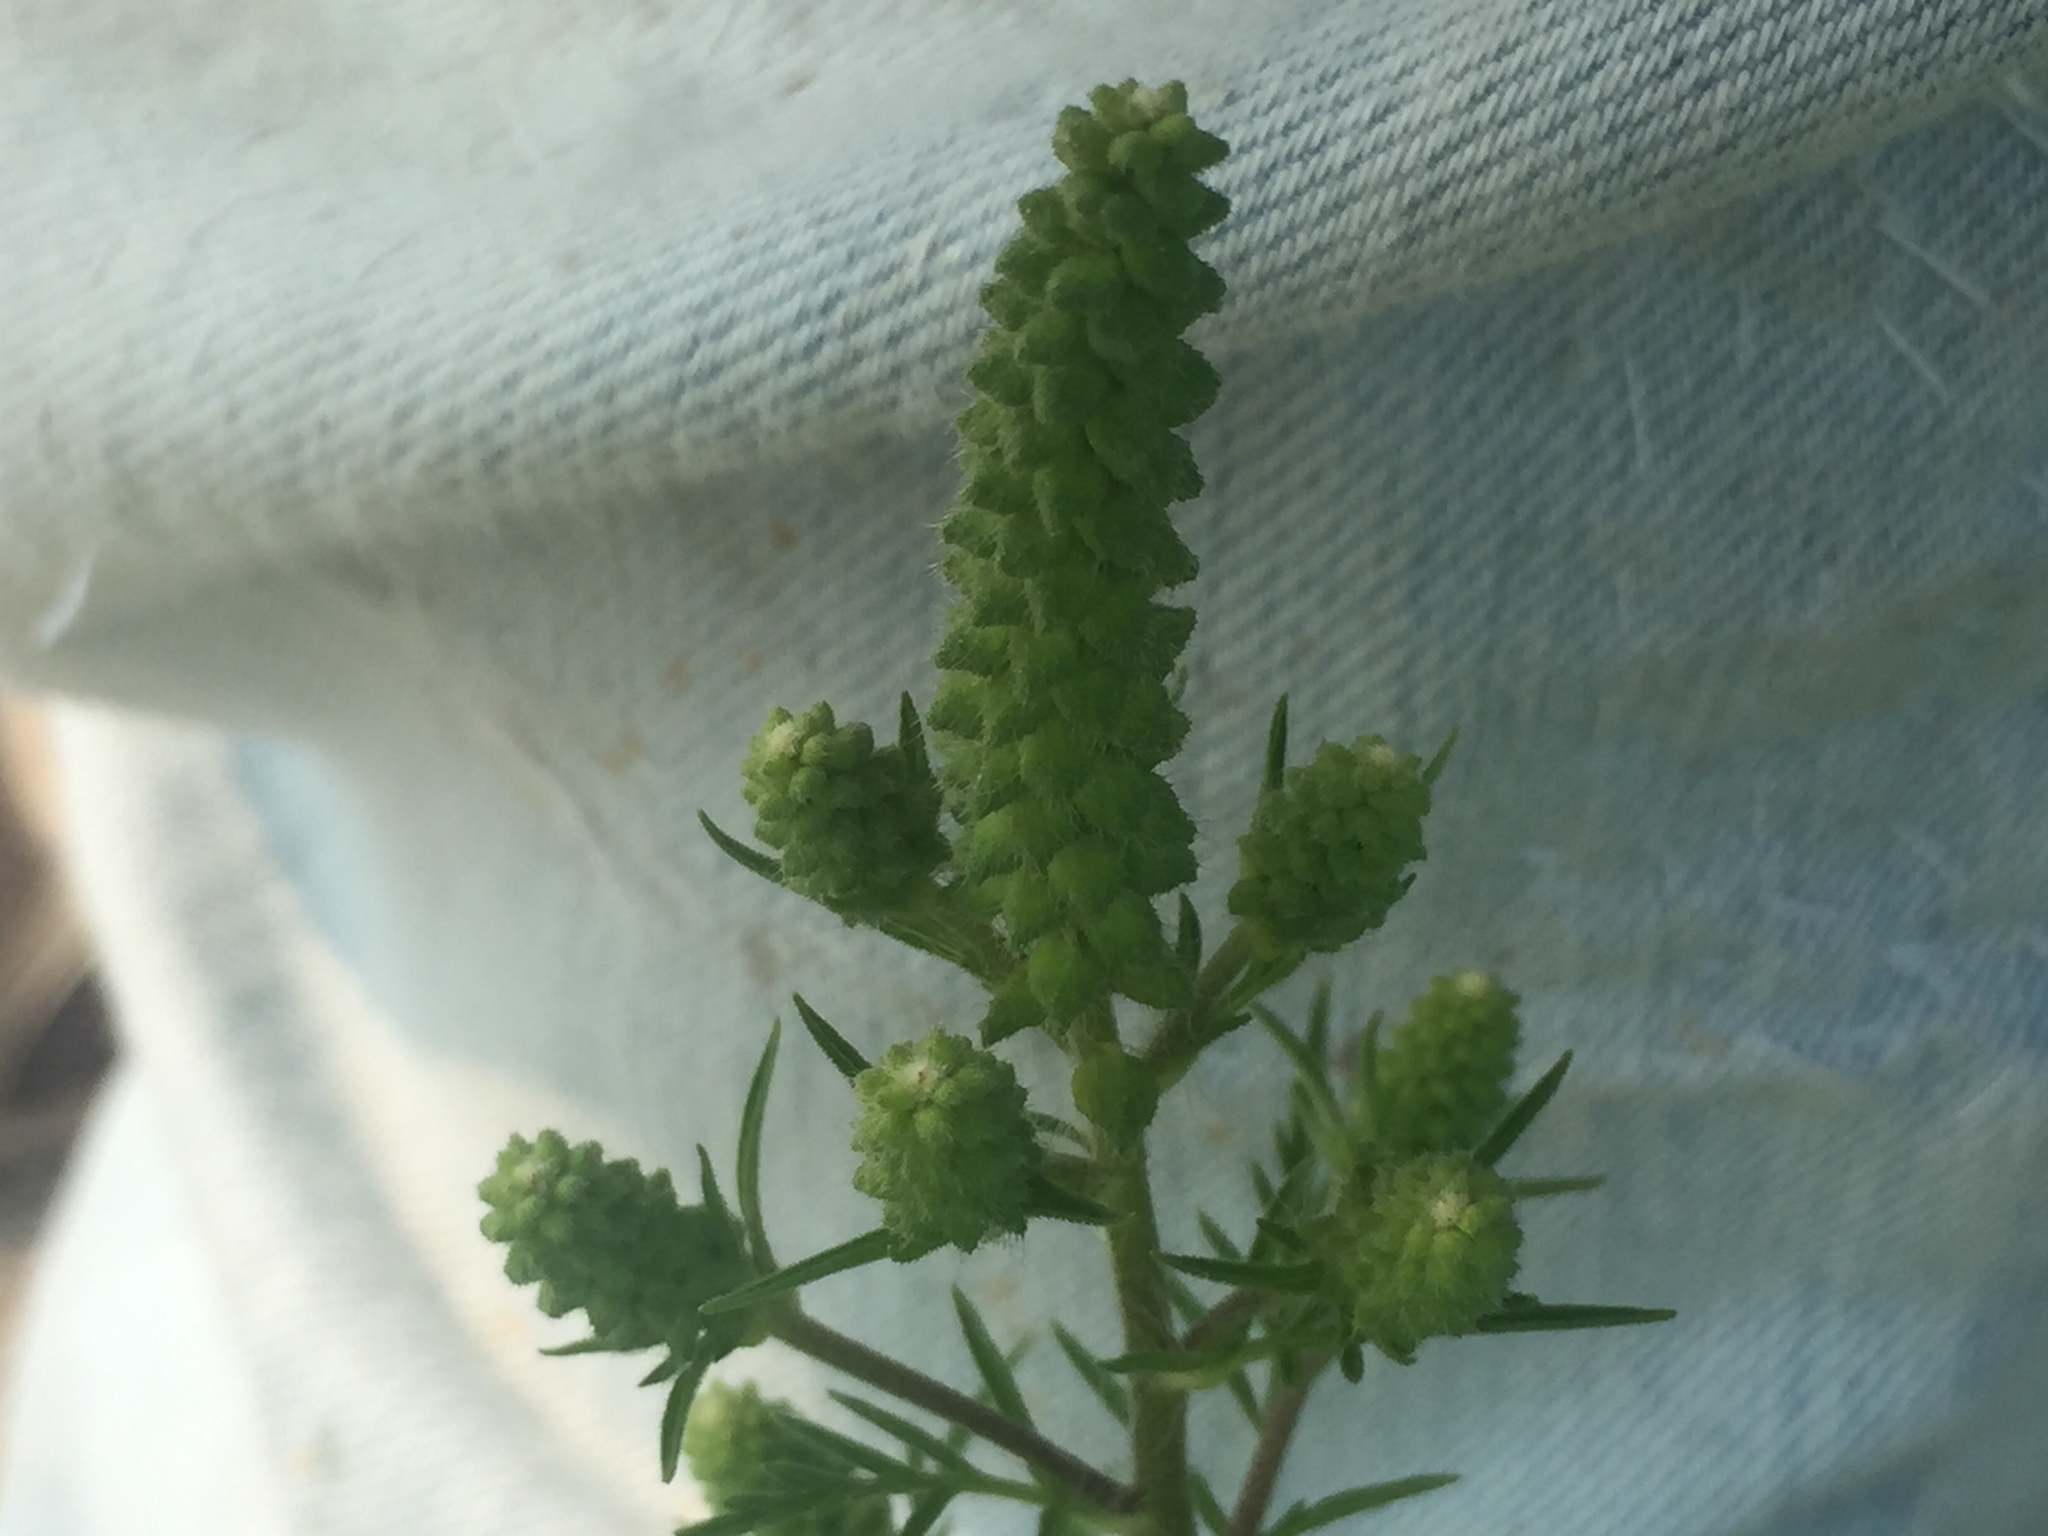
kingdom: Plantae
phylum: Tracheophyta
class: Magnoliopsida
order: Asterales
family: Asteraceae
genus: Ambrosia
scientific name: Ambrosia artemisiifolia
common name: Annual ragweed
